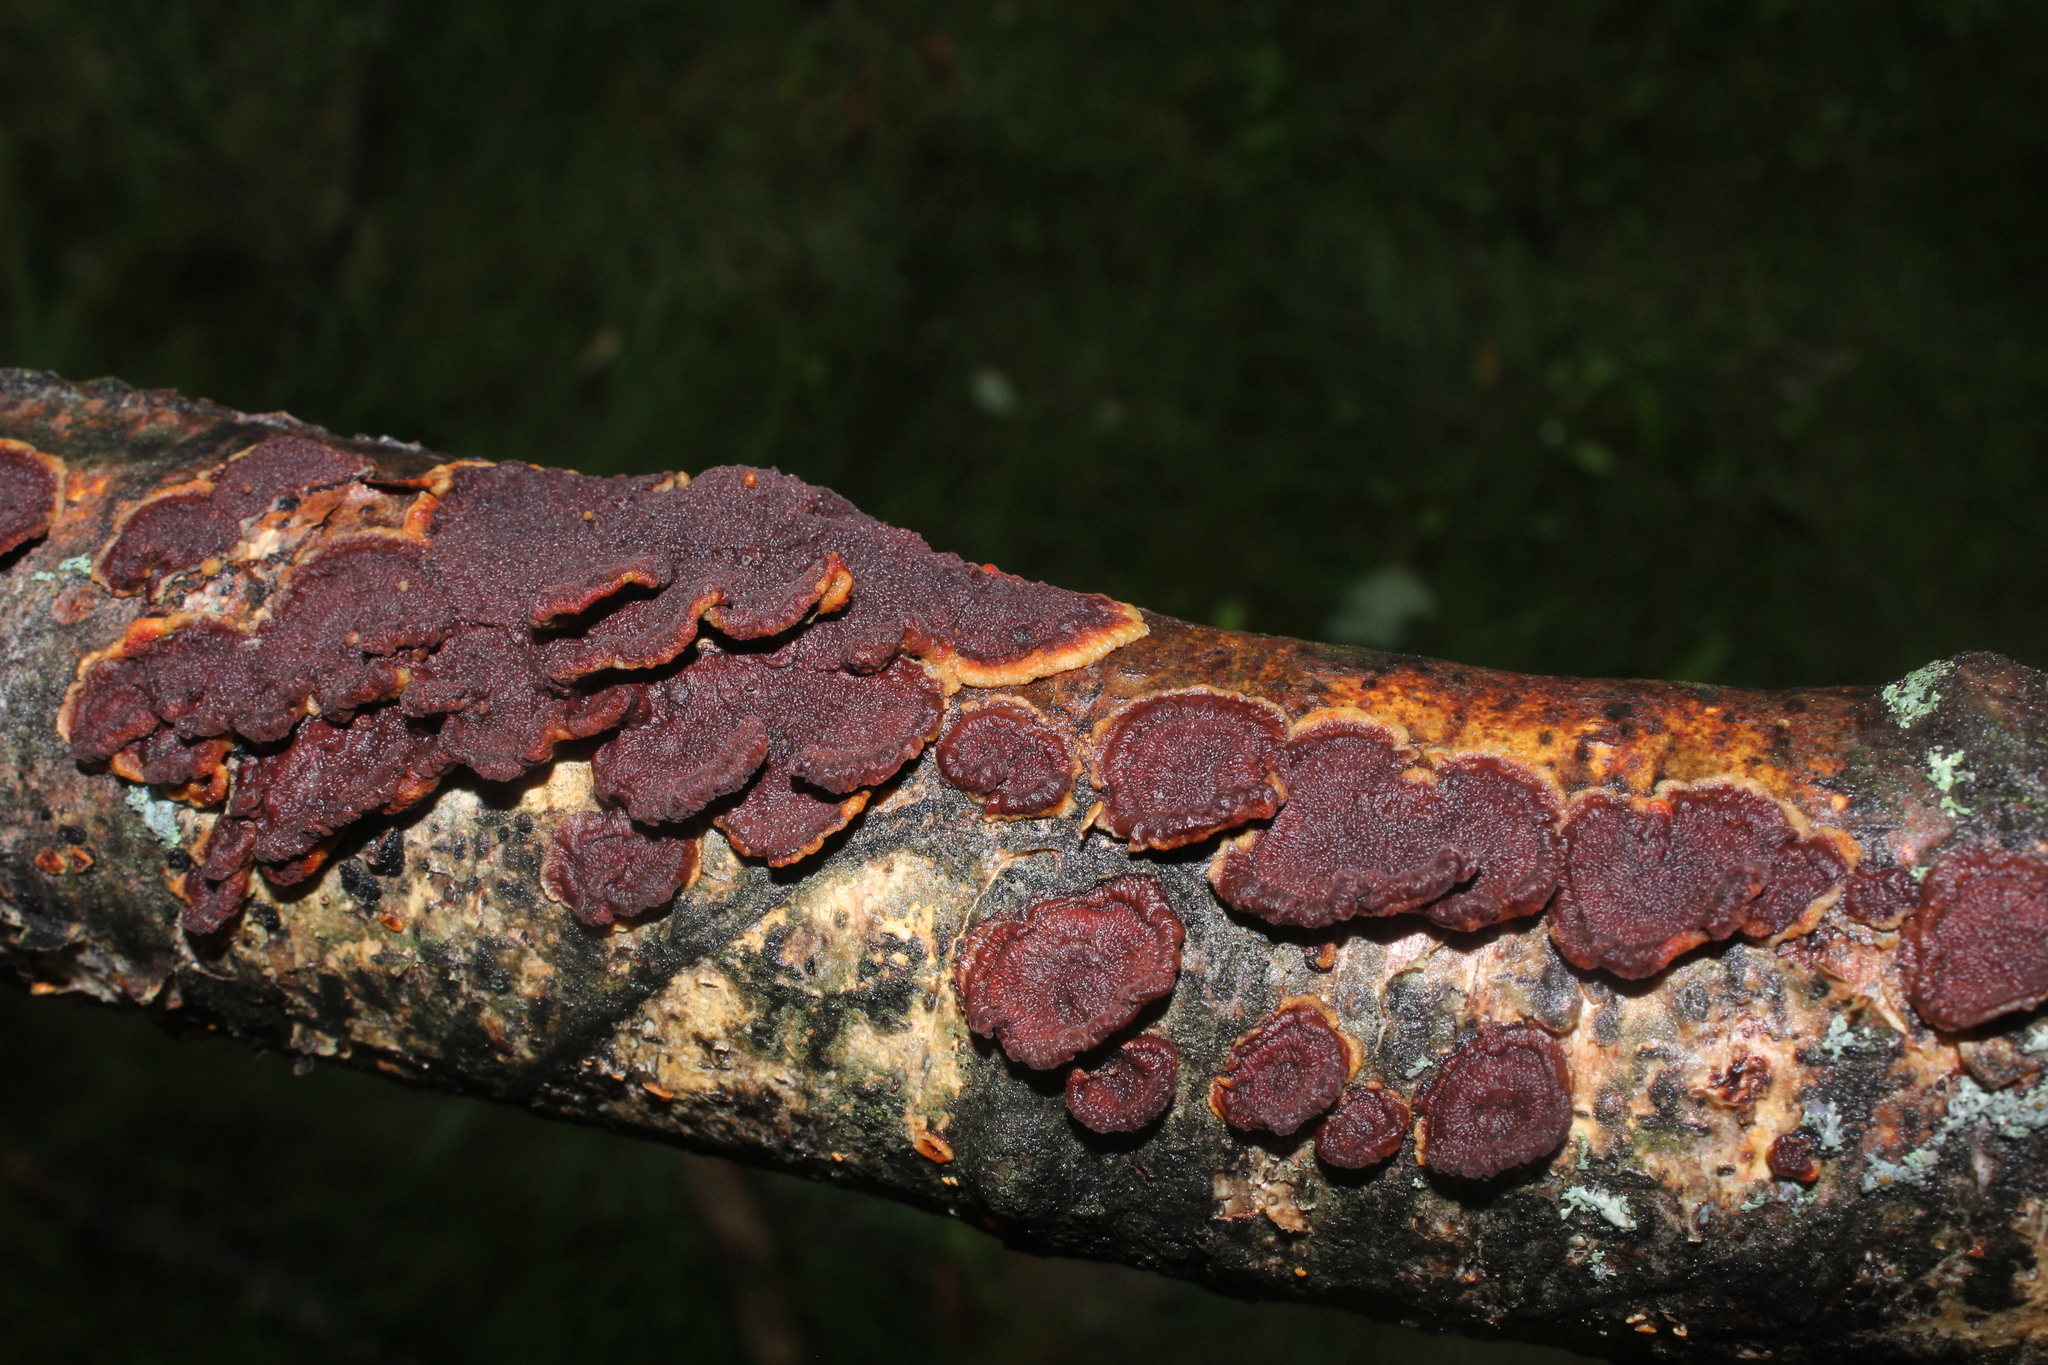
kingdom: Fungi
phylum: Basidiomycota
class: Agaricomycetes
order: Corticiales
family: Punctulariaceae
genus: Punctularia
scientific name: Punctularia strigosozonata
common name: White-rot fungus
